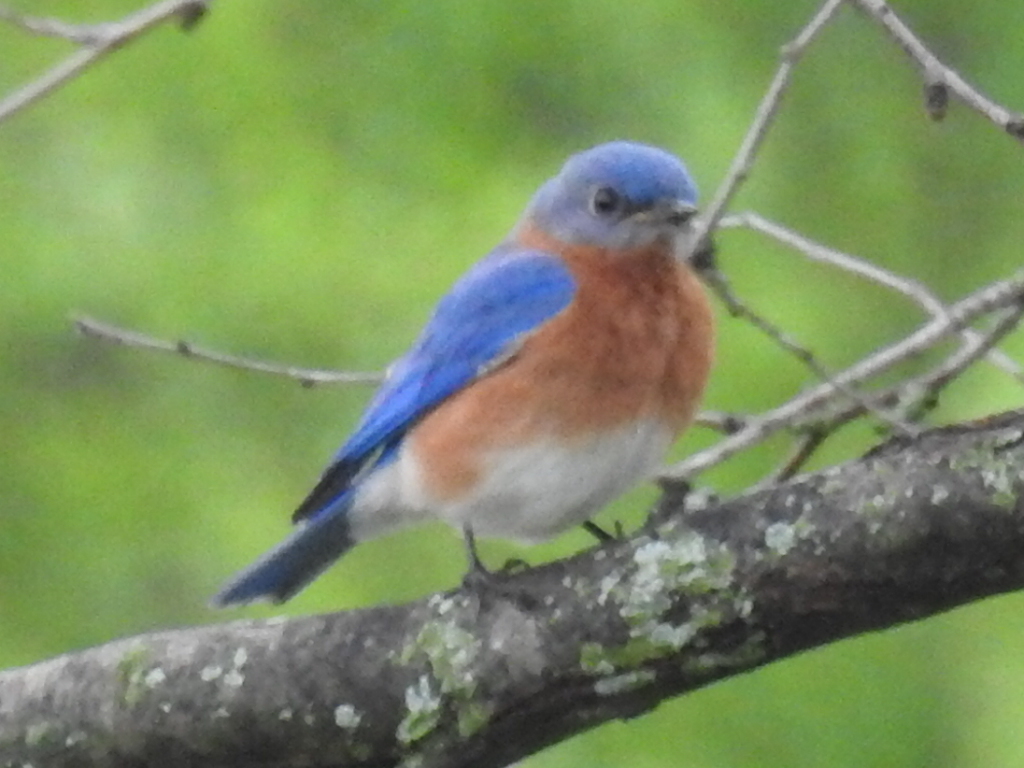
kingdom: Animalia
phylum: Chordata
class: Aves
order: Passeriformes
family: Turdidae
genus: Sialia
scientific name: Sialia sialis
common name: Eastern bluebird
